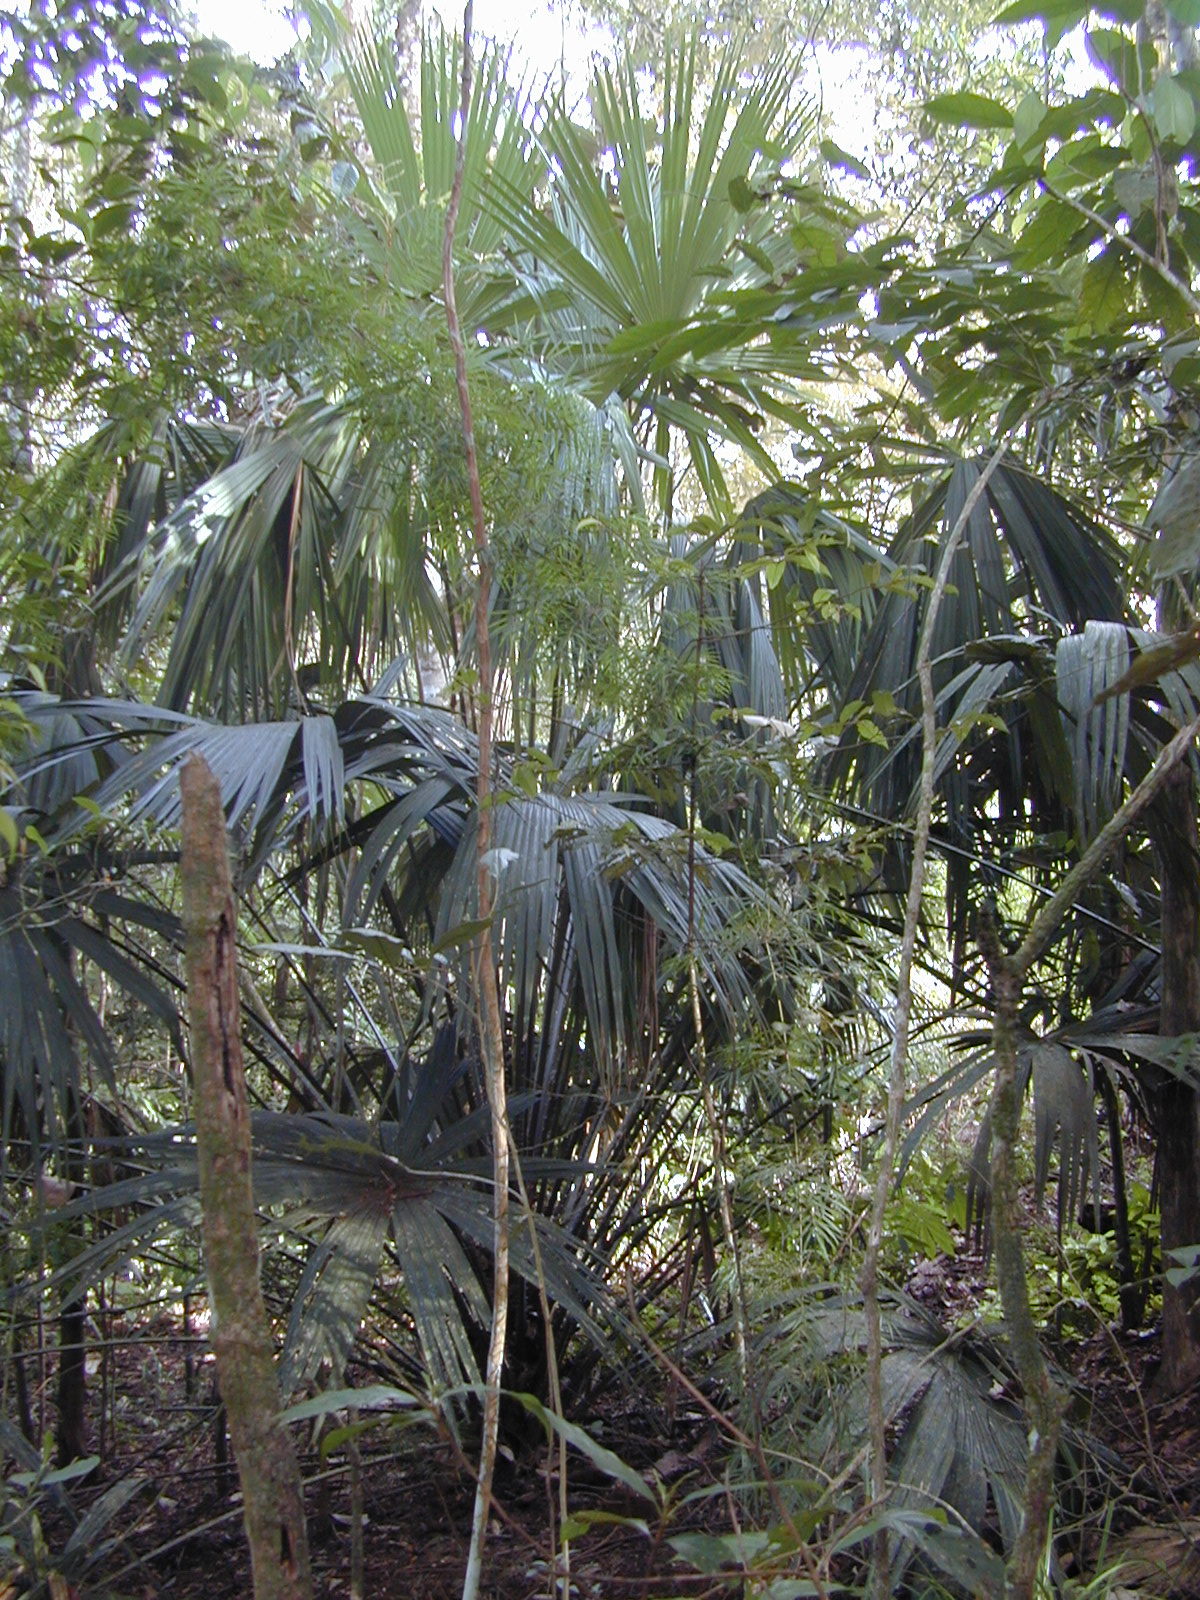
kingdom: Plantae
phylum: Tracheophyta
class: Liliopsida
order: Arecales
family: Arecaceae
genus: Livistona
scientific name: Livistona saribus
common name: Taraw palm
